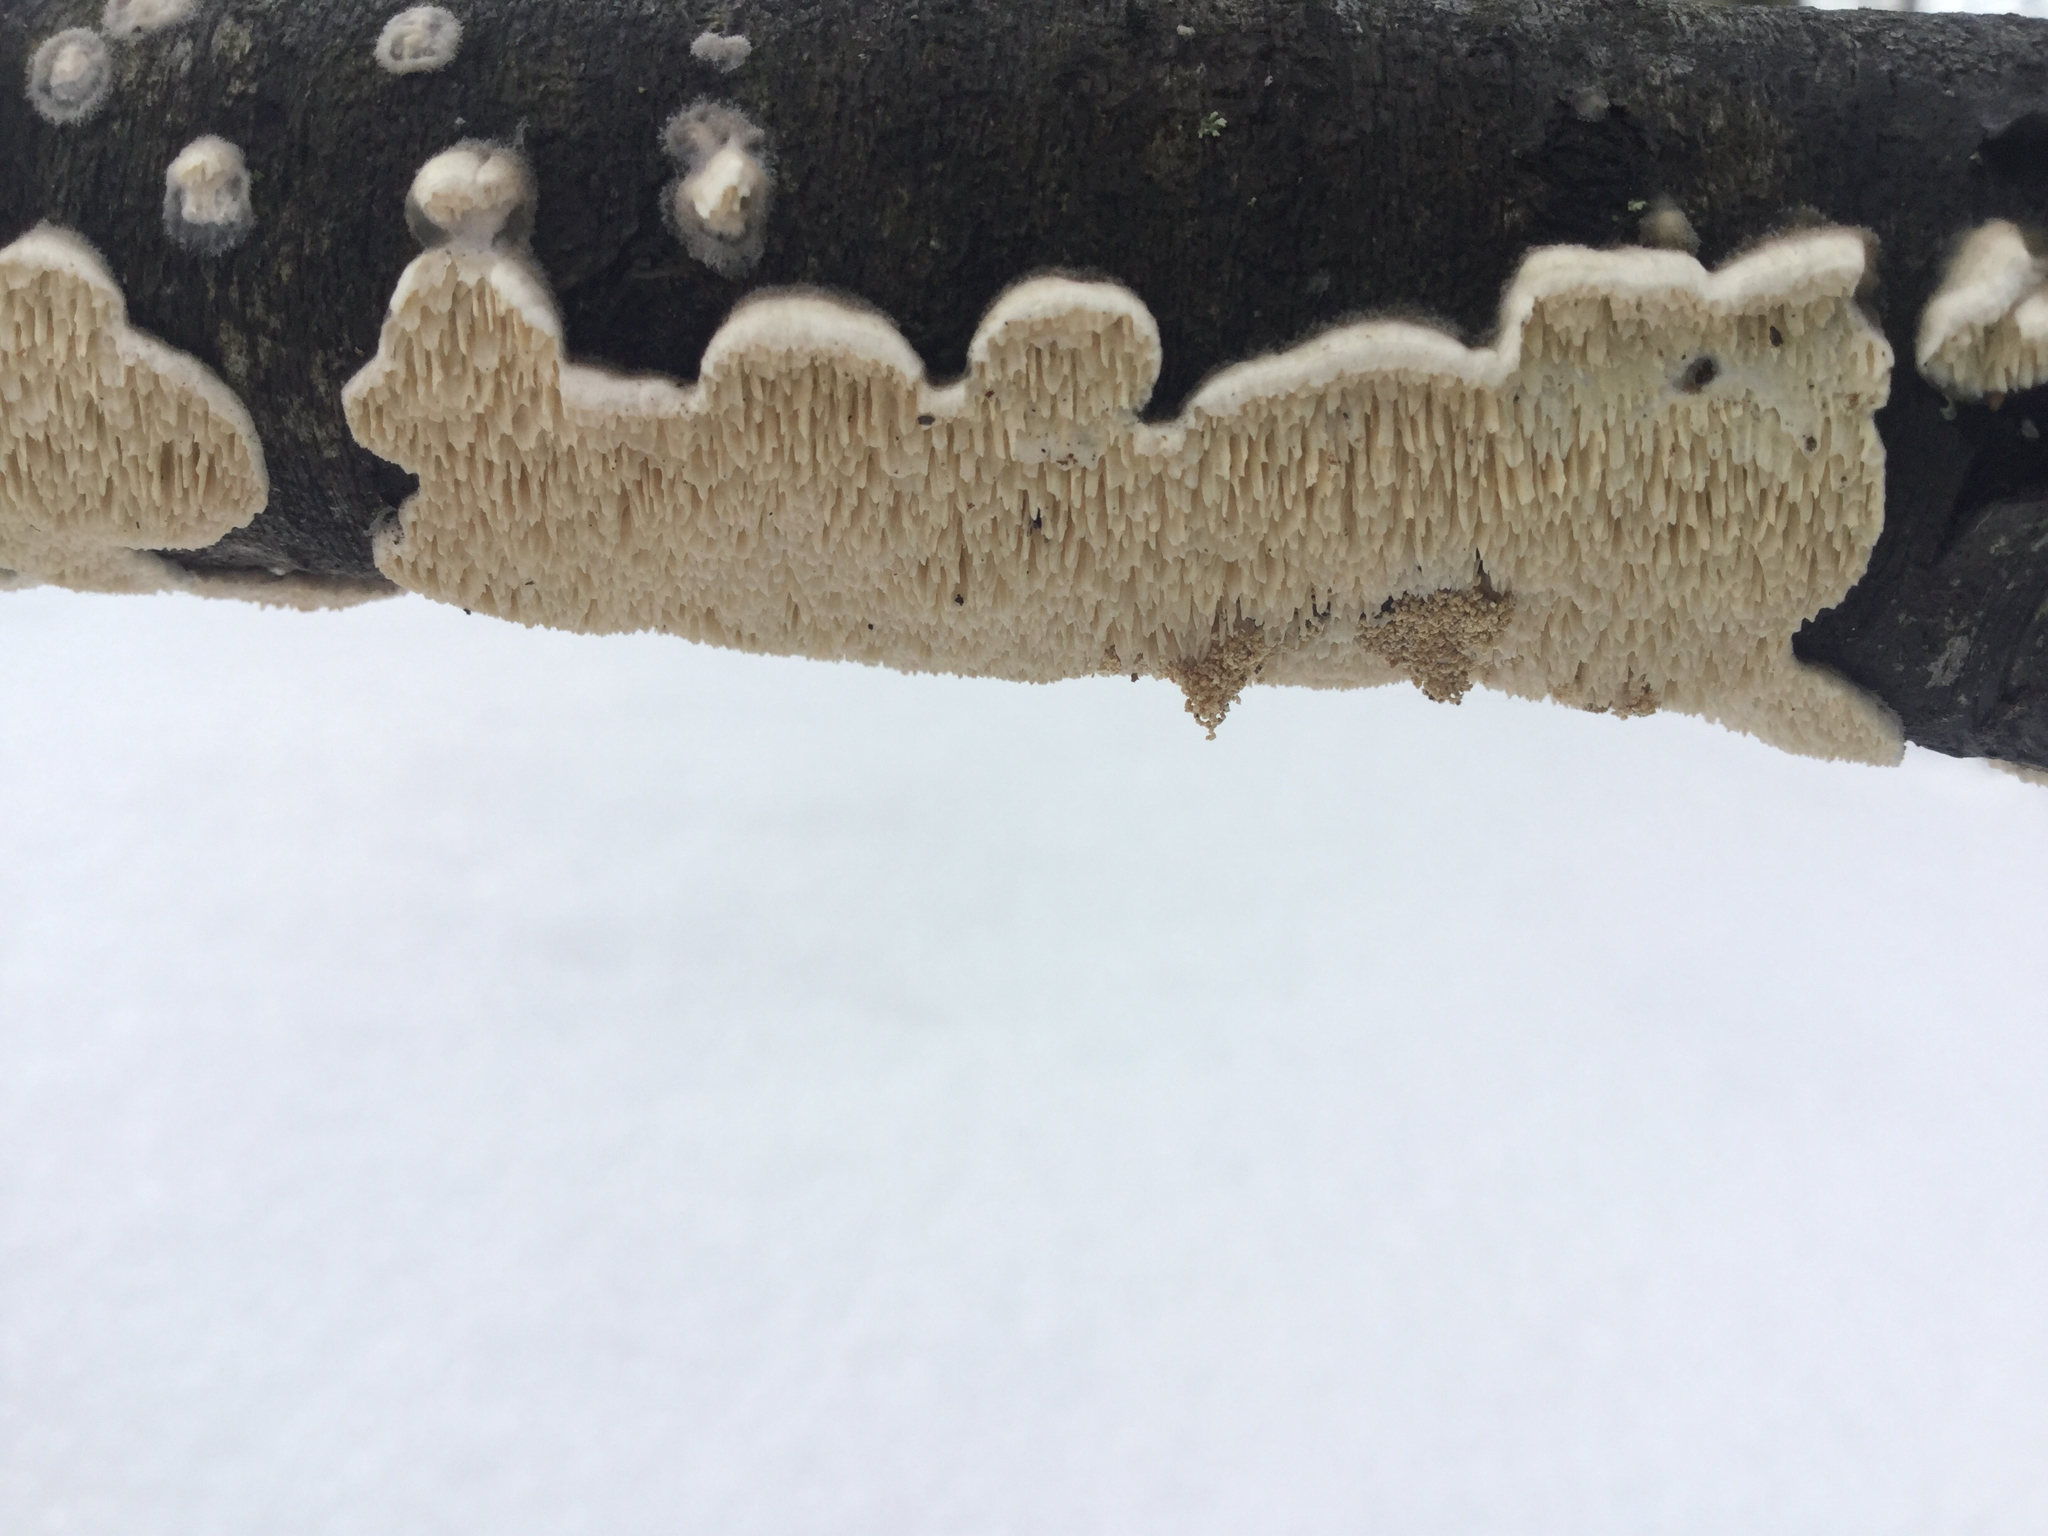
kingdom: Fungi
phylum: Basidiomycota
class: Agaricomycetes
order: Polyporales
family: Irpicaceae
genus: Irpex
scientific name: Irpex lacteus
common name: Milk-white toothed polypore
